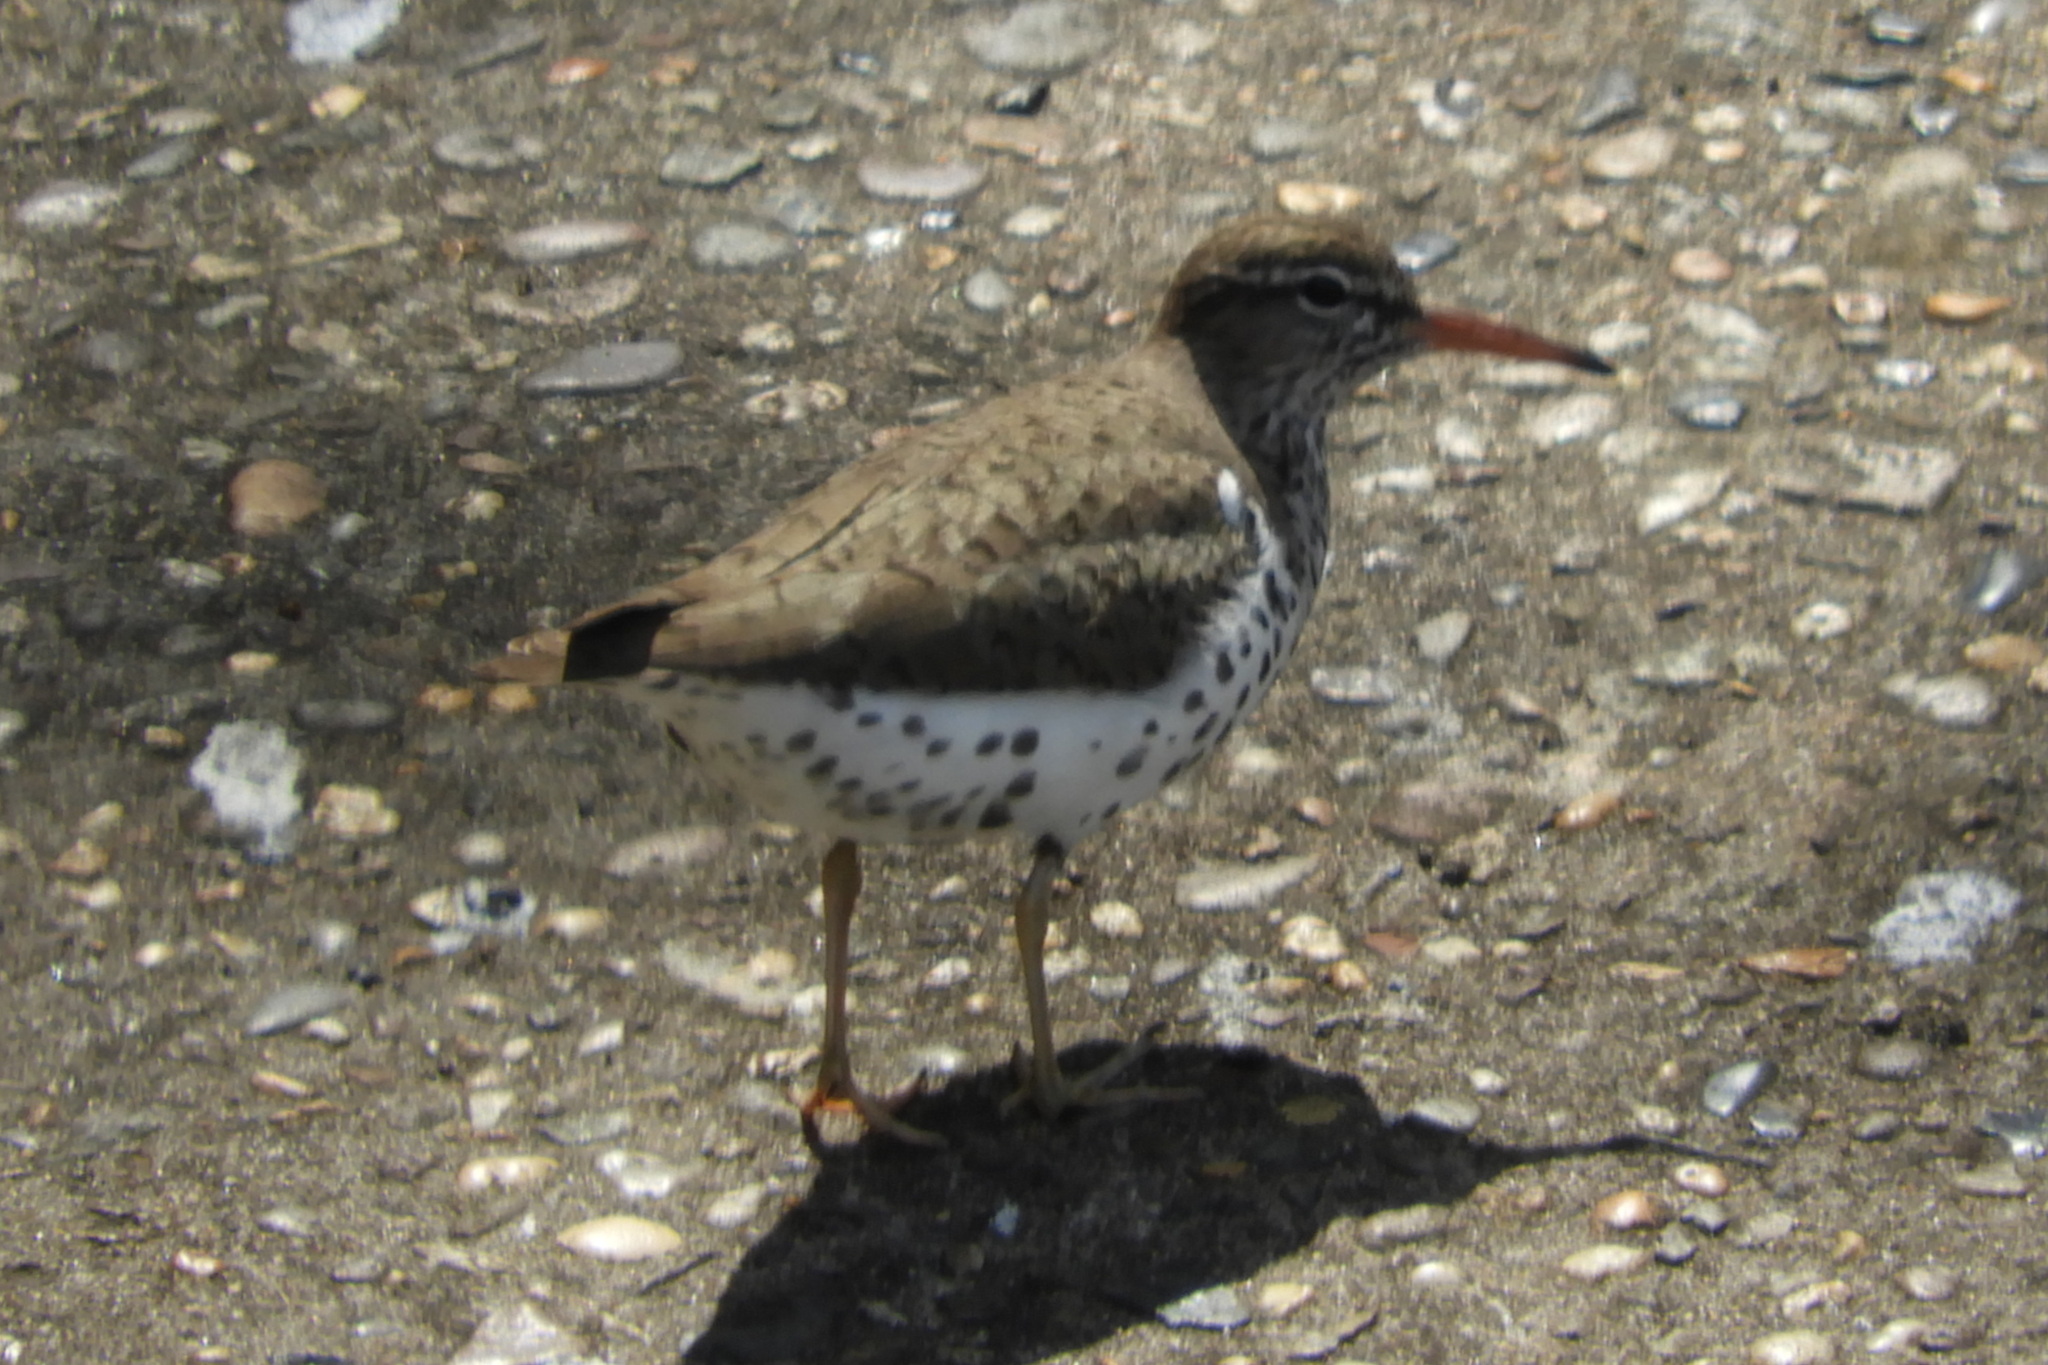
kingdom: Animalia
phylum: Chordata
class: Aves
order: Charadriiformes
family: Scolopacidae
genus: Actitis
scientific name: Actitis macularius
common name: Spotted sandpiper
